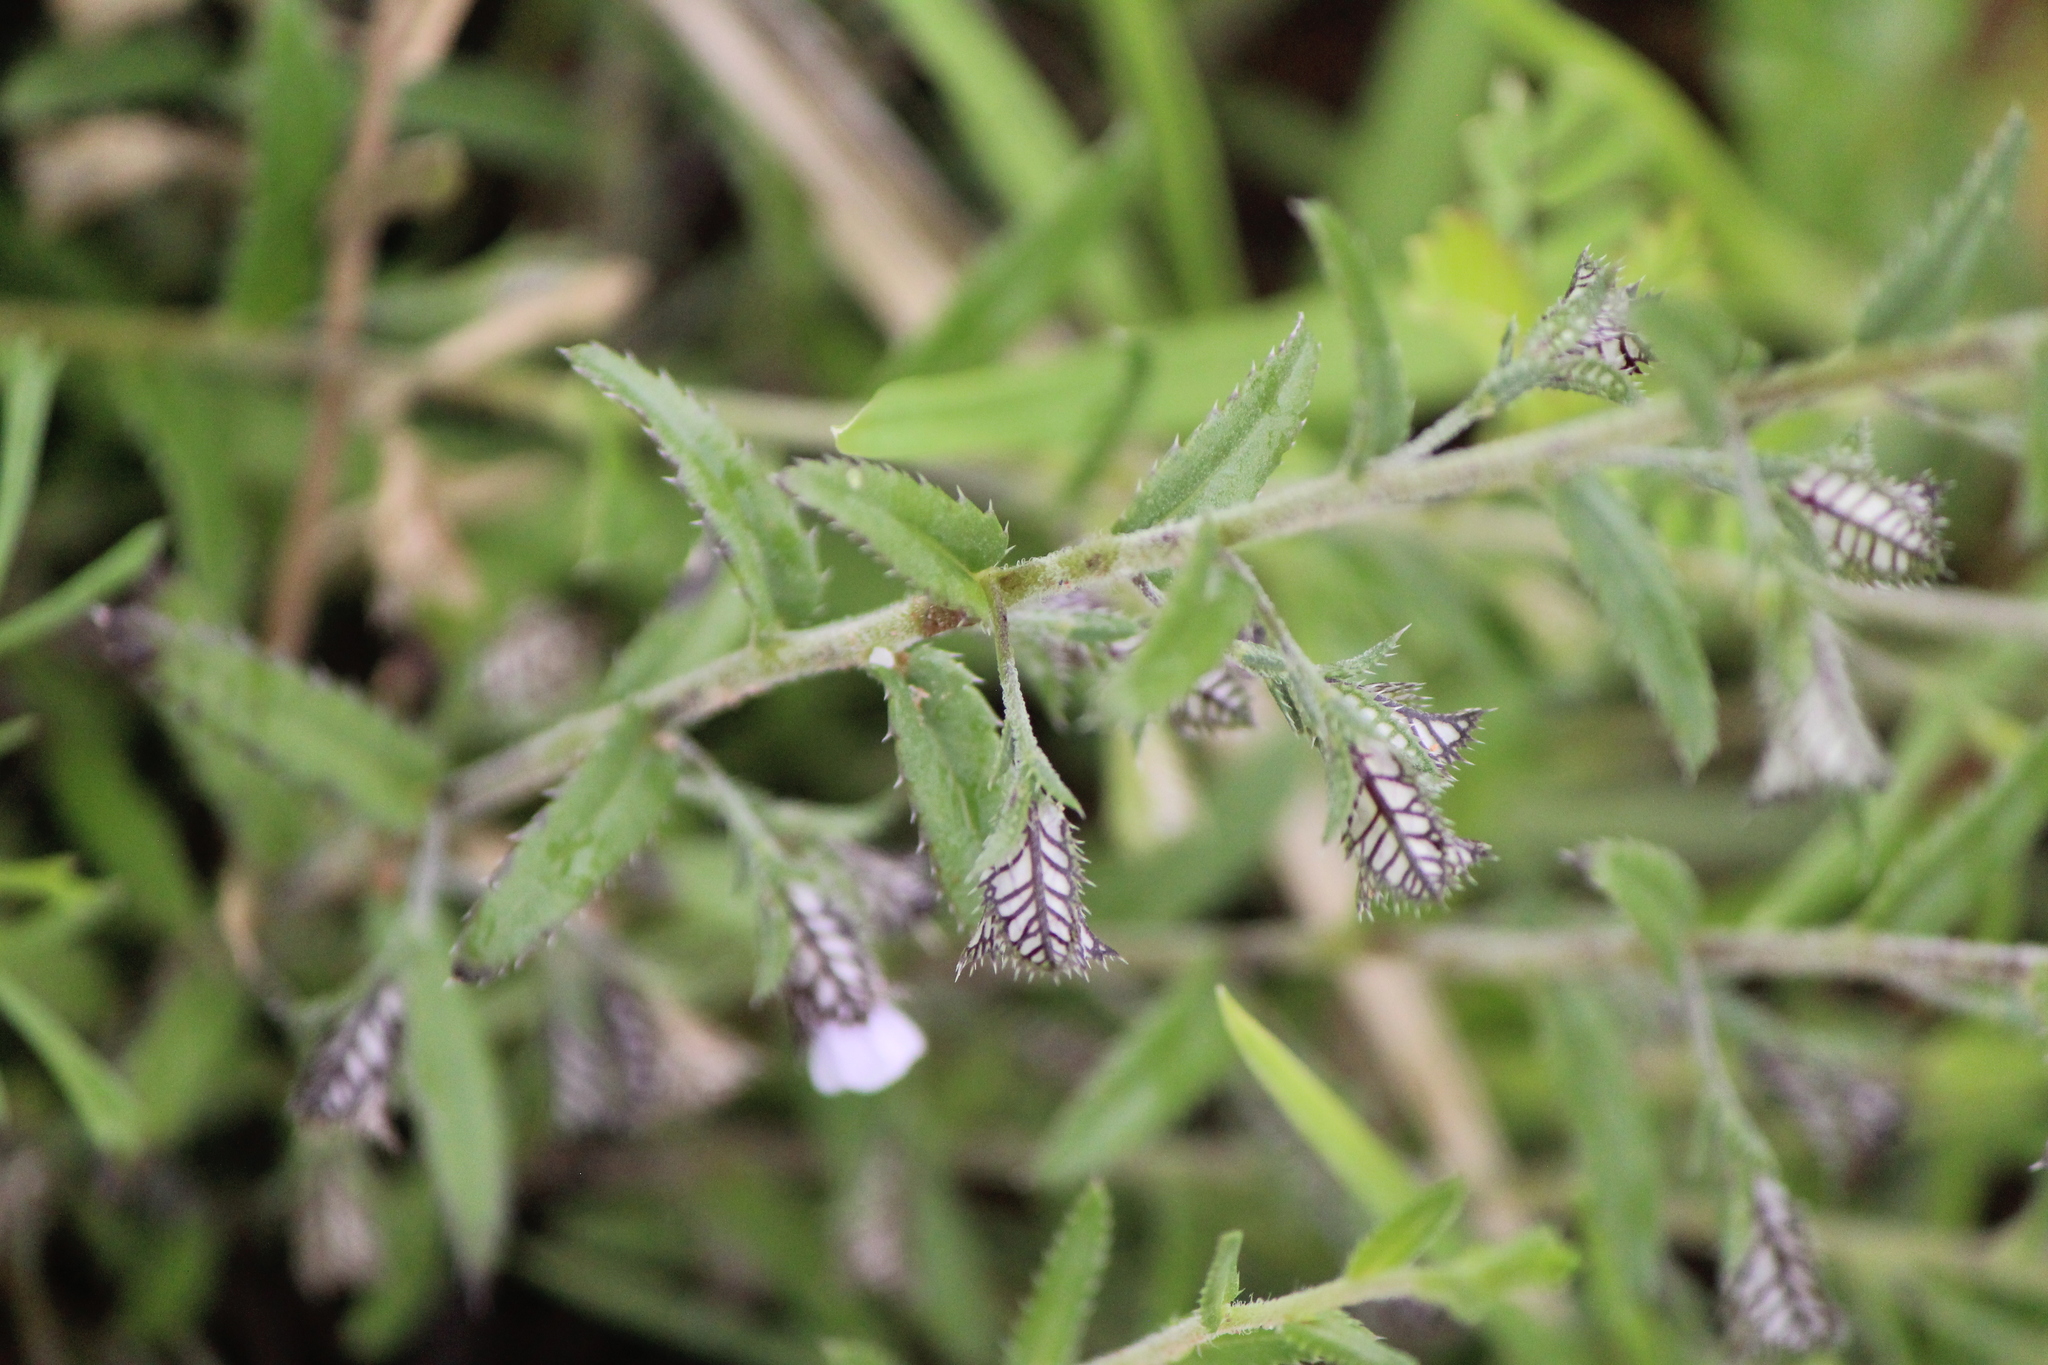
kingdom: Plantae
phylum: Tracheophyta
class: Magnoliopsida
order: Ericales
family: Polemoniaceae
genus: Loeselia
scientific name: Loeselia coerulea
